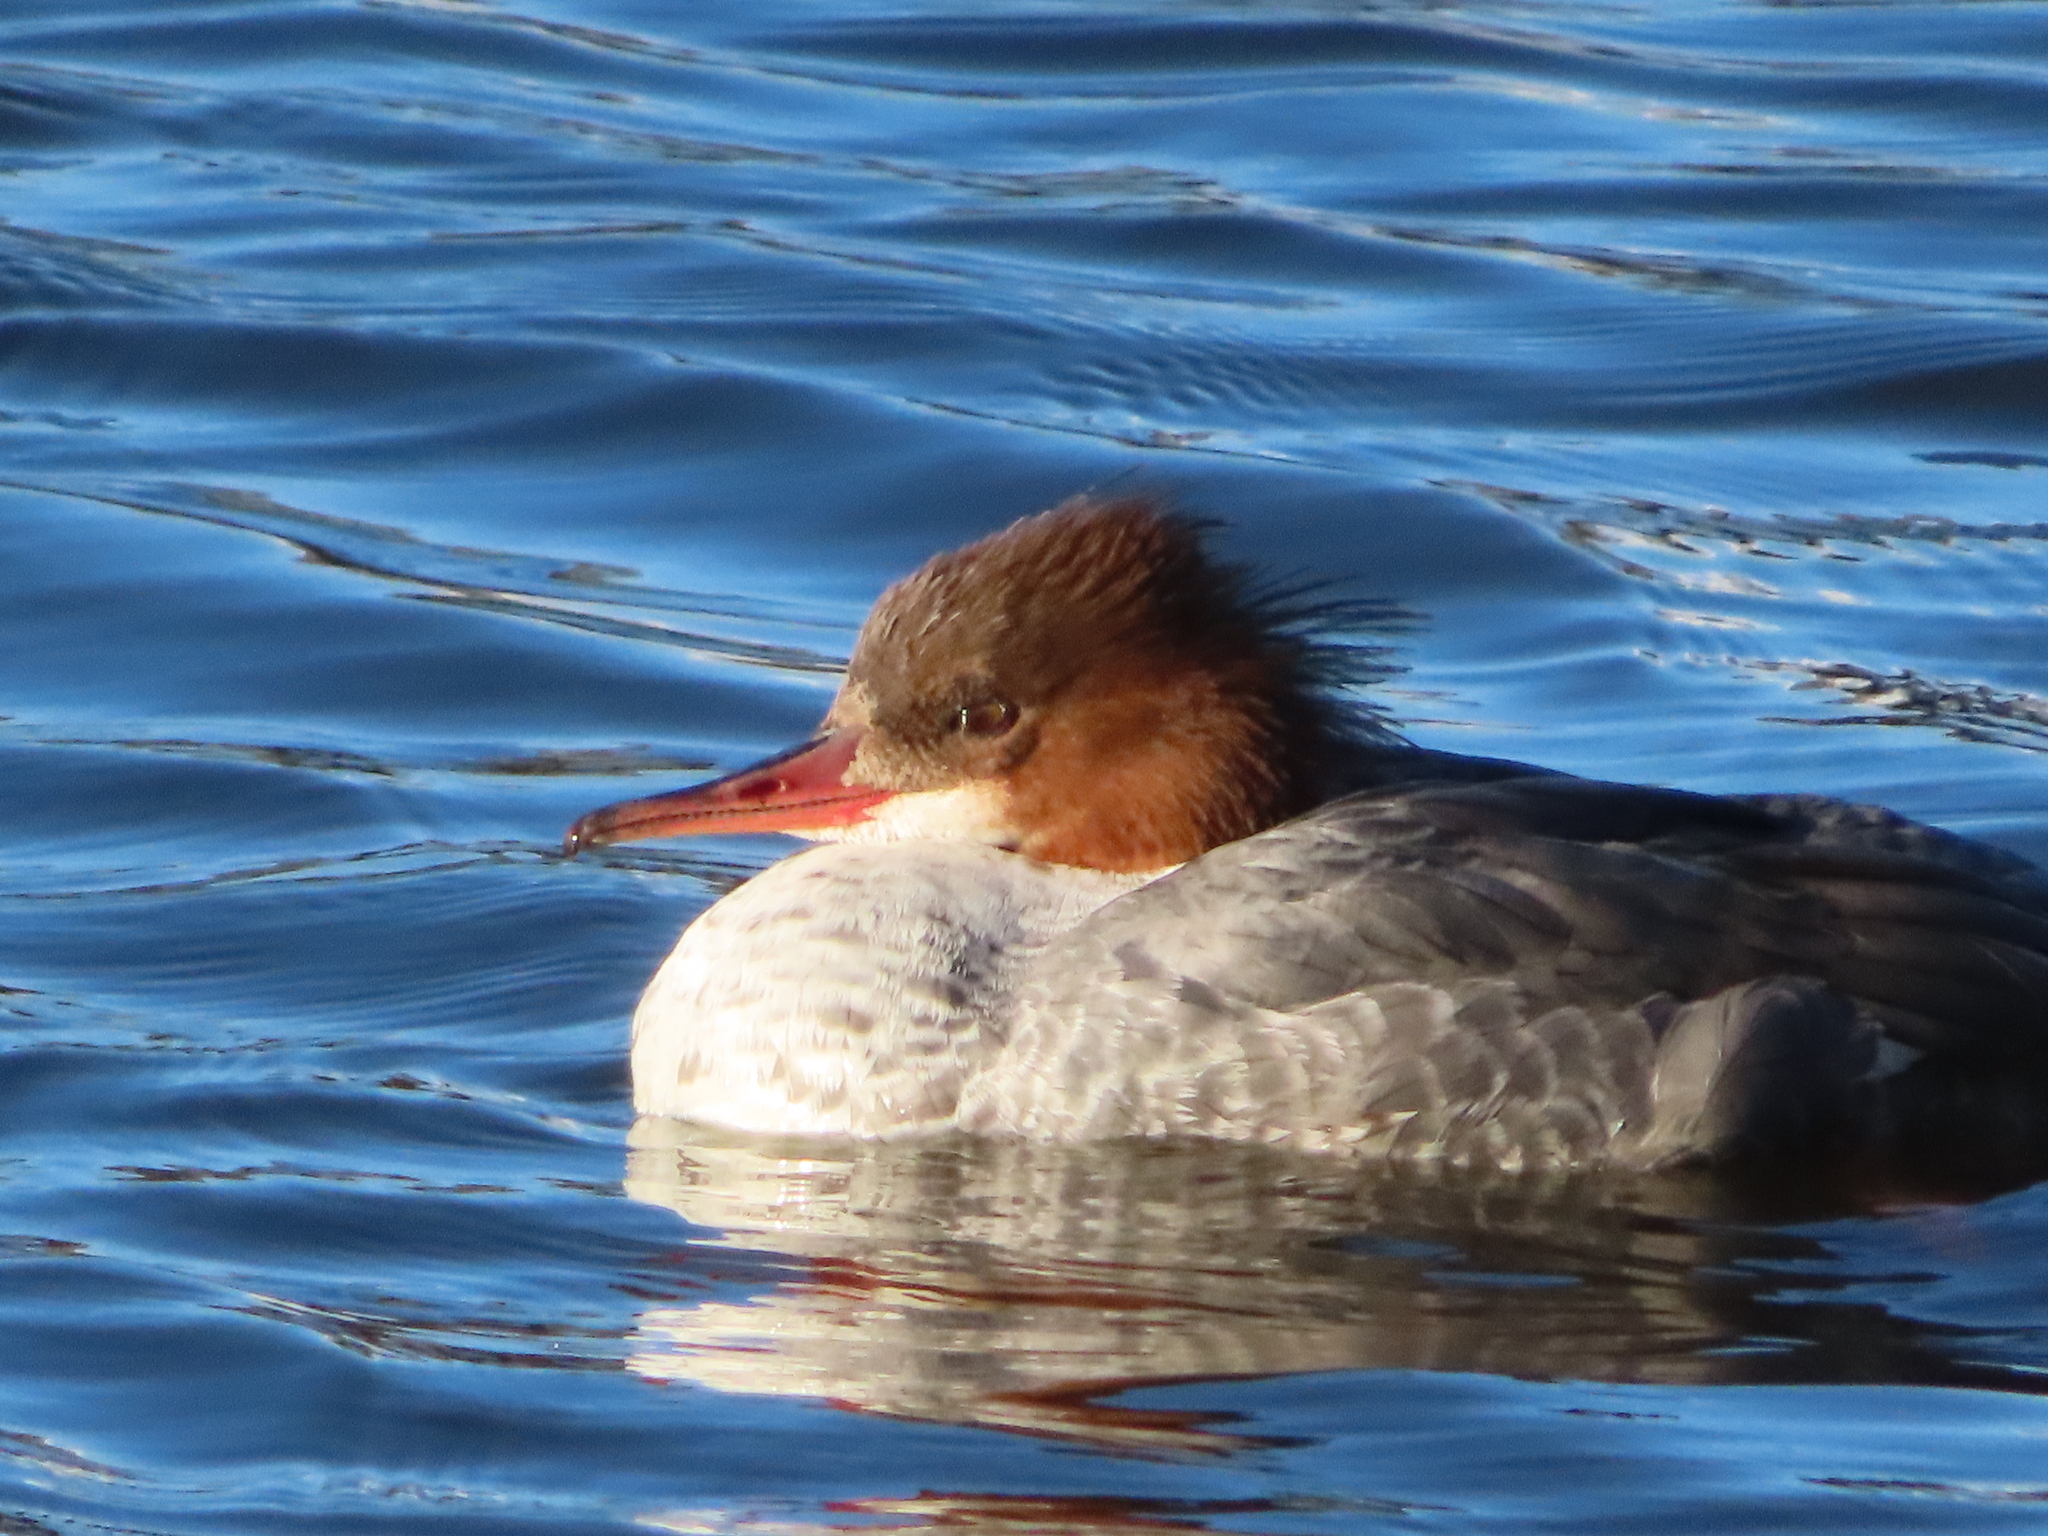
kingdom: Animalia
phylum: Chordata
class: Aves
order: Anseriformes
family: Anatidae
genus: Mergus
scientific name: Mergus merganser
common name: Common merganser
